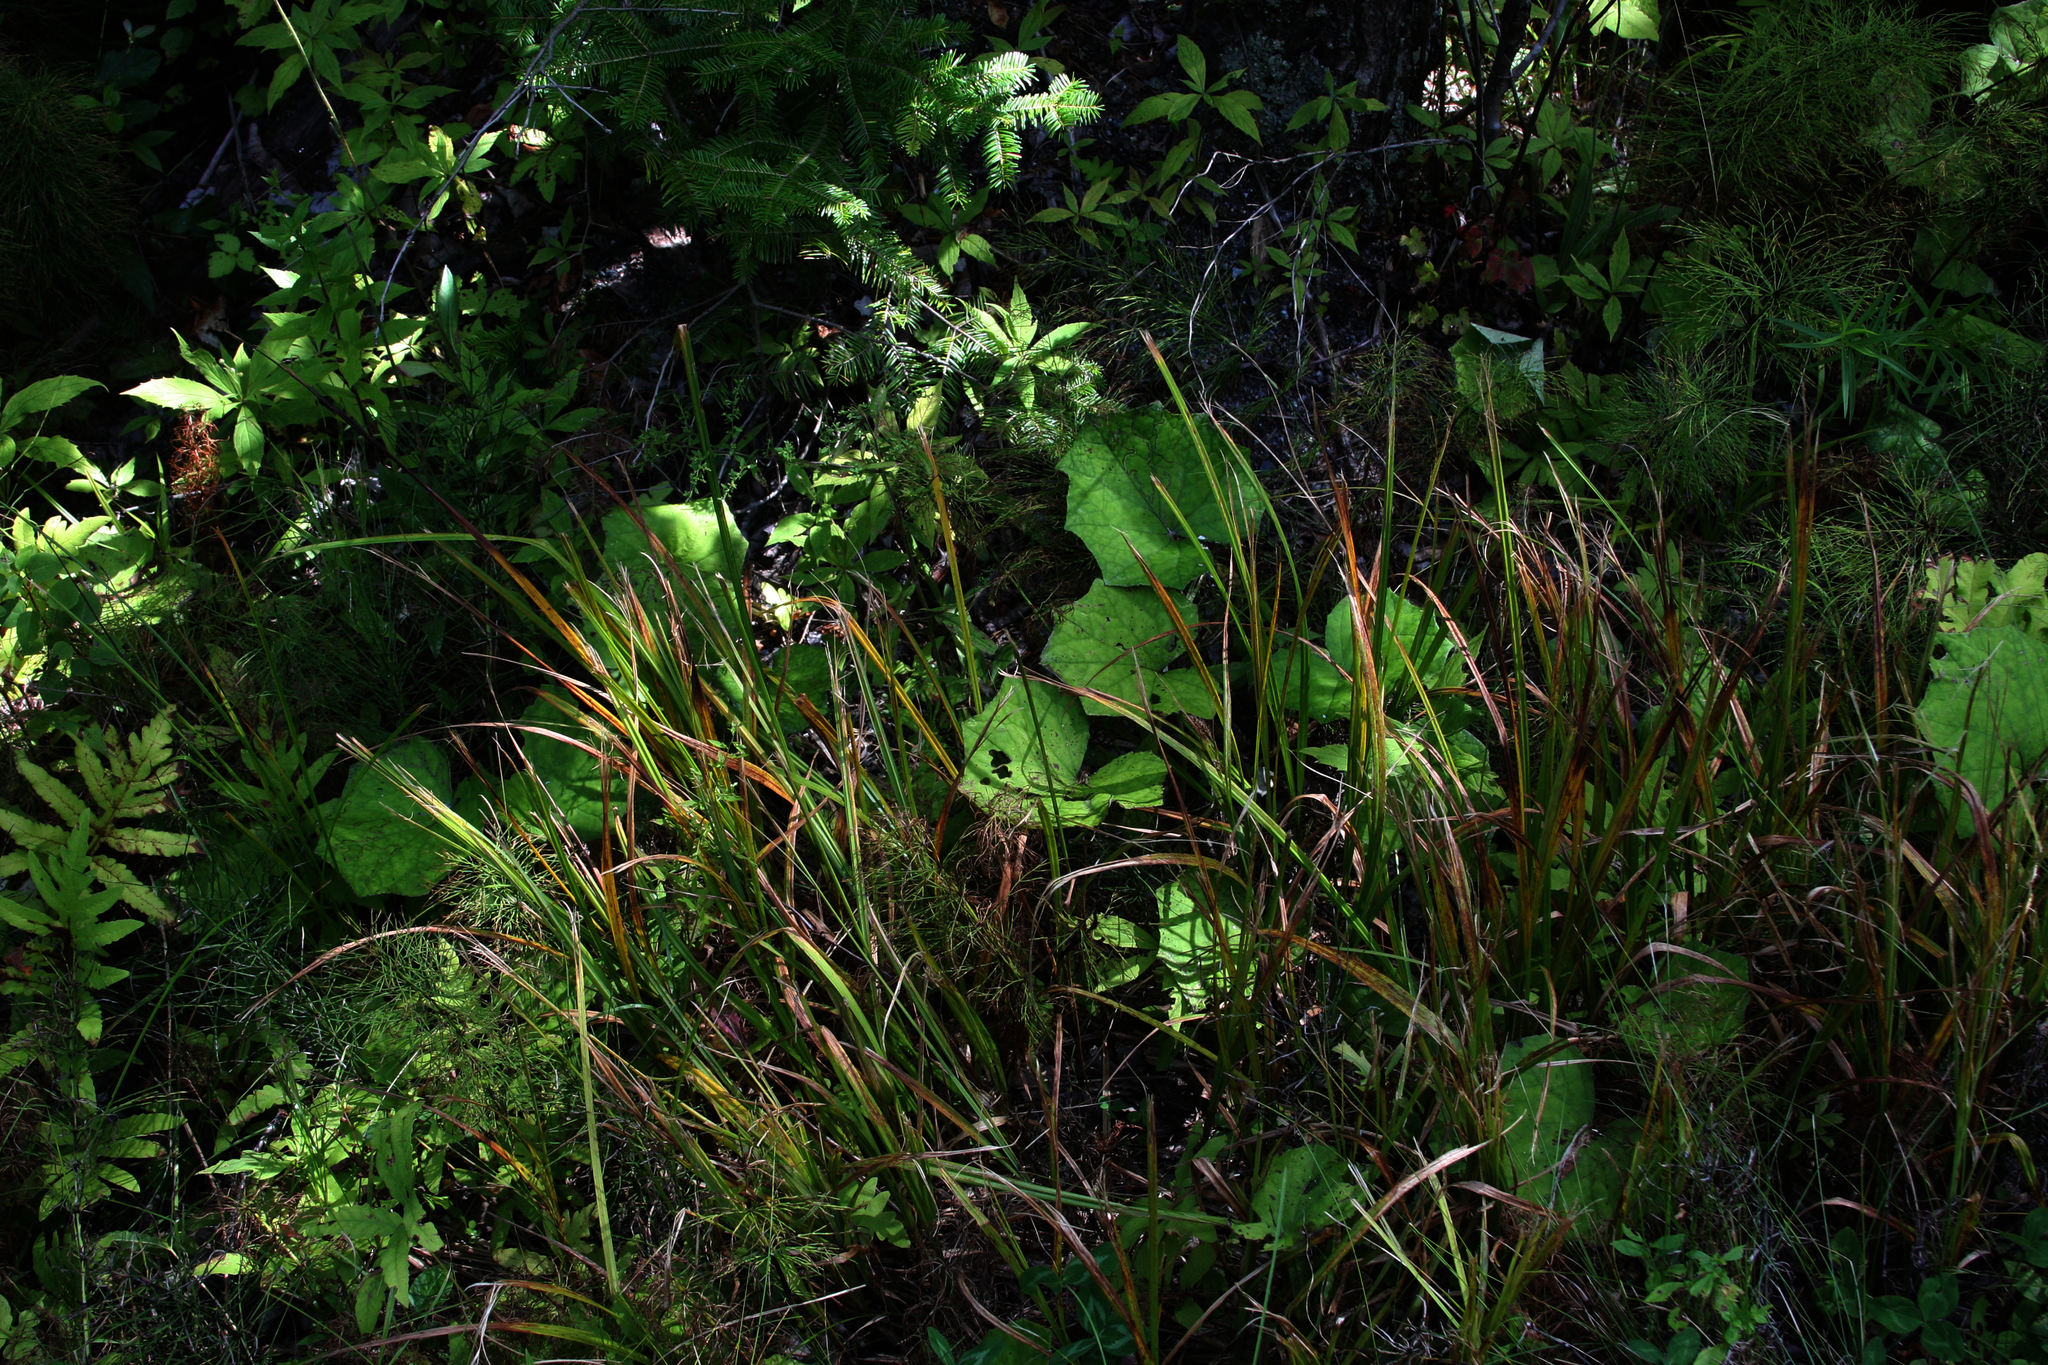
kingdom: Plantae
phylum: Tracheophyta
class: Magnoliopsida
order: Asterales
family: Asteraceae
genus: Tussilago
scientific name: Tussilago farfara
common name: Coltsfoot
